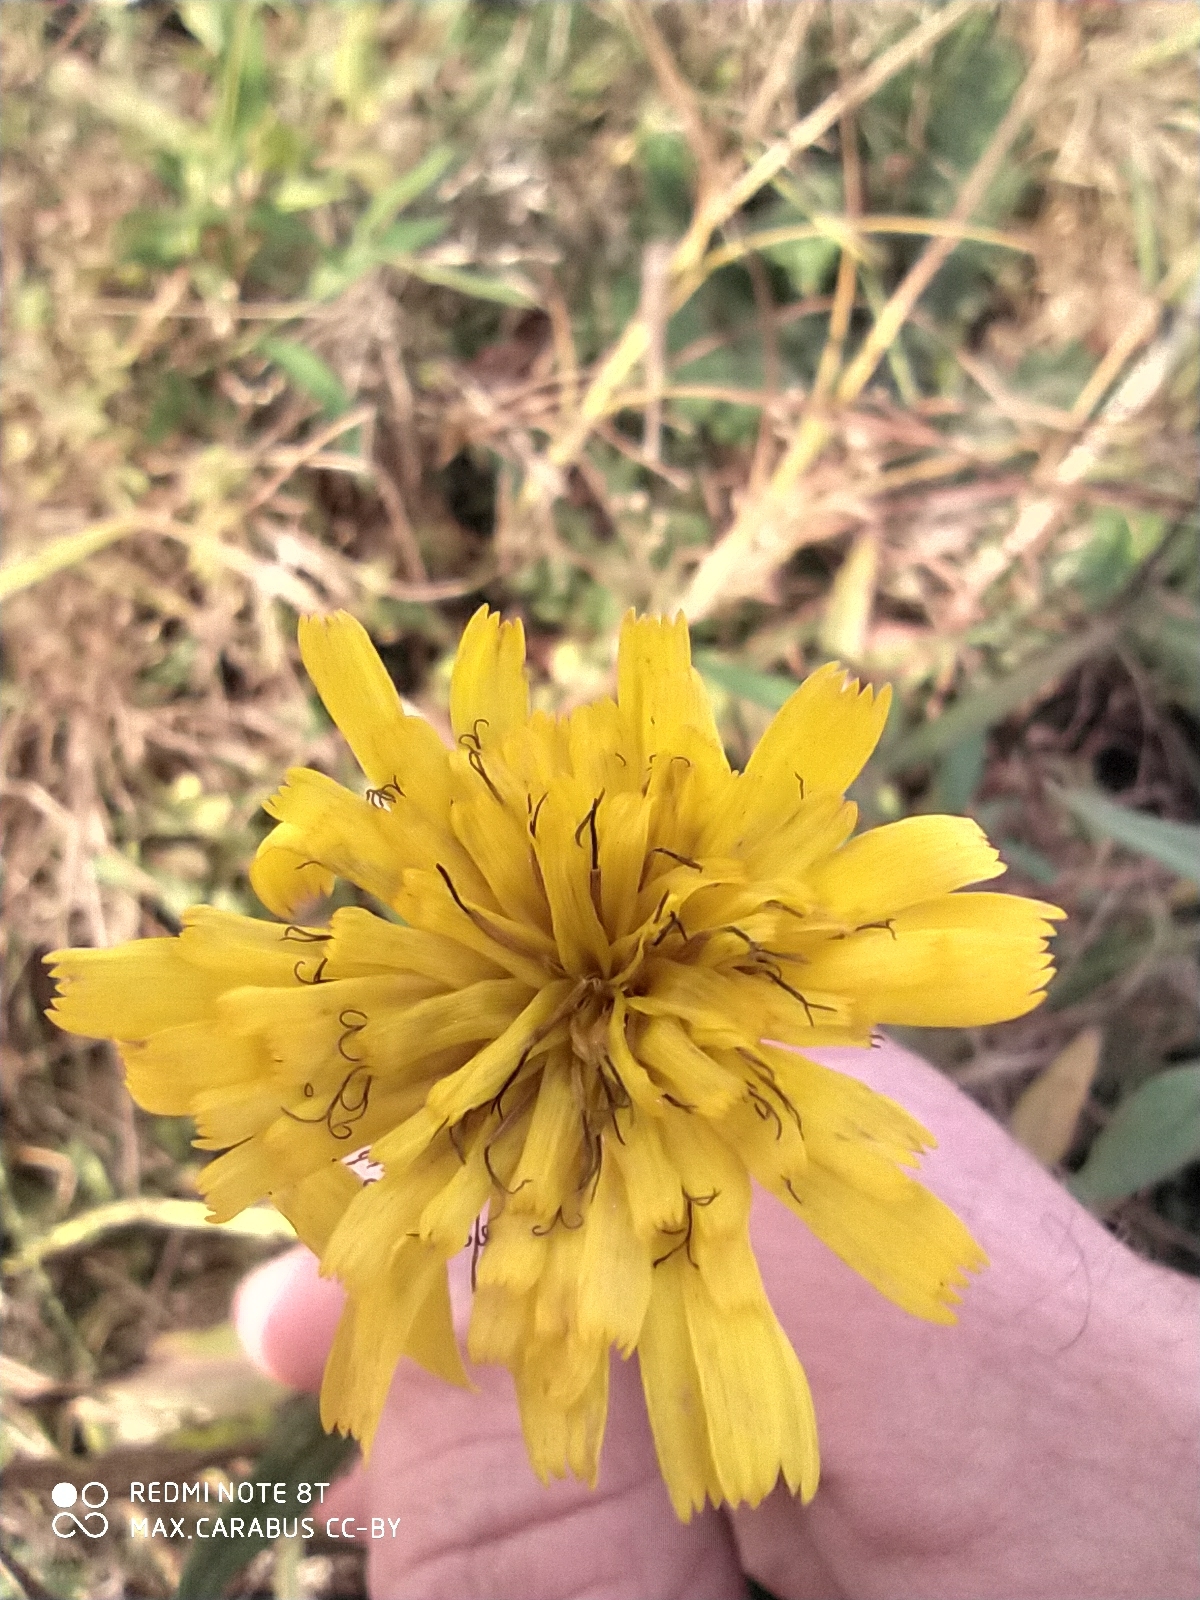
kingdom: Plantae
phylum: Tracheophyta
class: Magnoliopsida
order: Asterales
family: Asteraceae
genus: Hieracium
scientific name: Hieracium umbellatum
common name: Northern hawkweed
